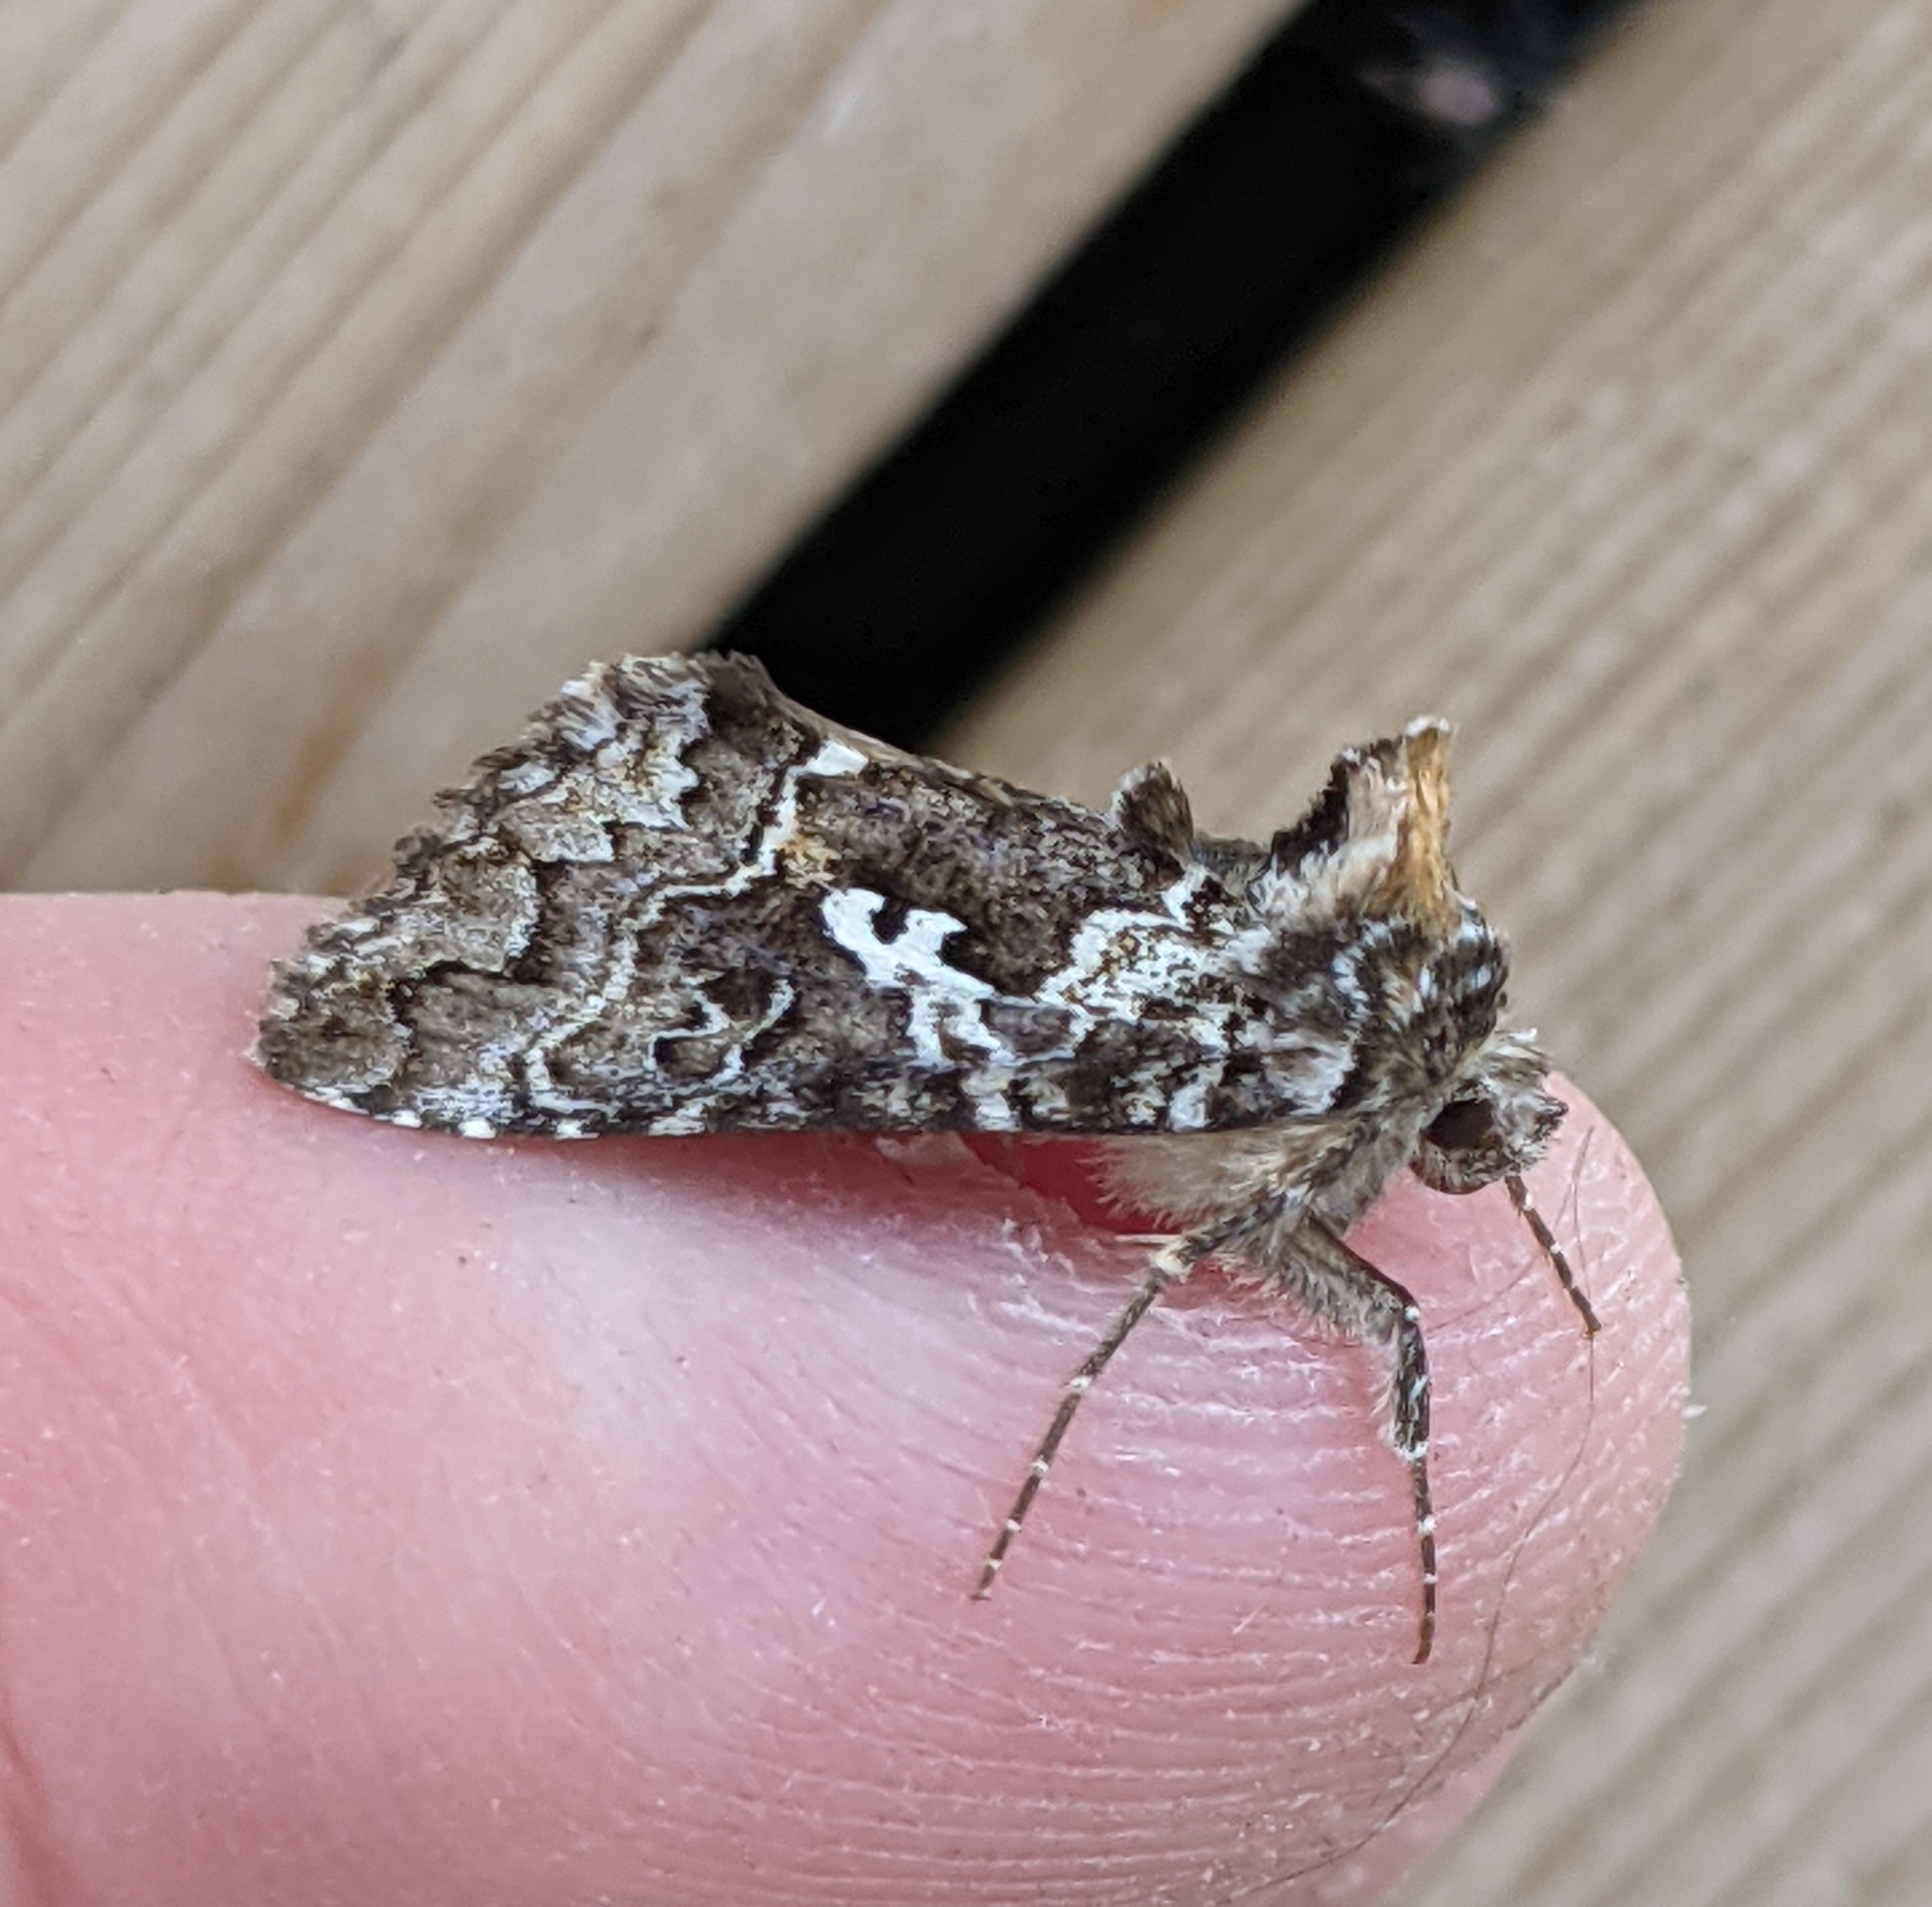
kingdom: Animalia
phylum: Arthropoda
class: Insecta
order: Lepidoptera
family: Noctuidae
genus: Syngrapha
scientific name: Syngrapha rectangula
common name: Angulated cutworm
